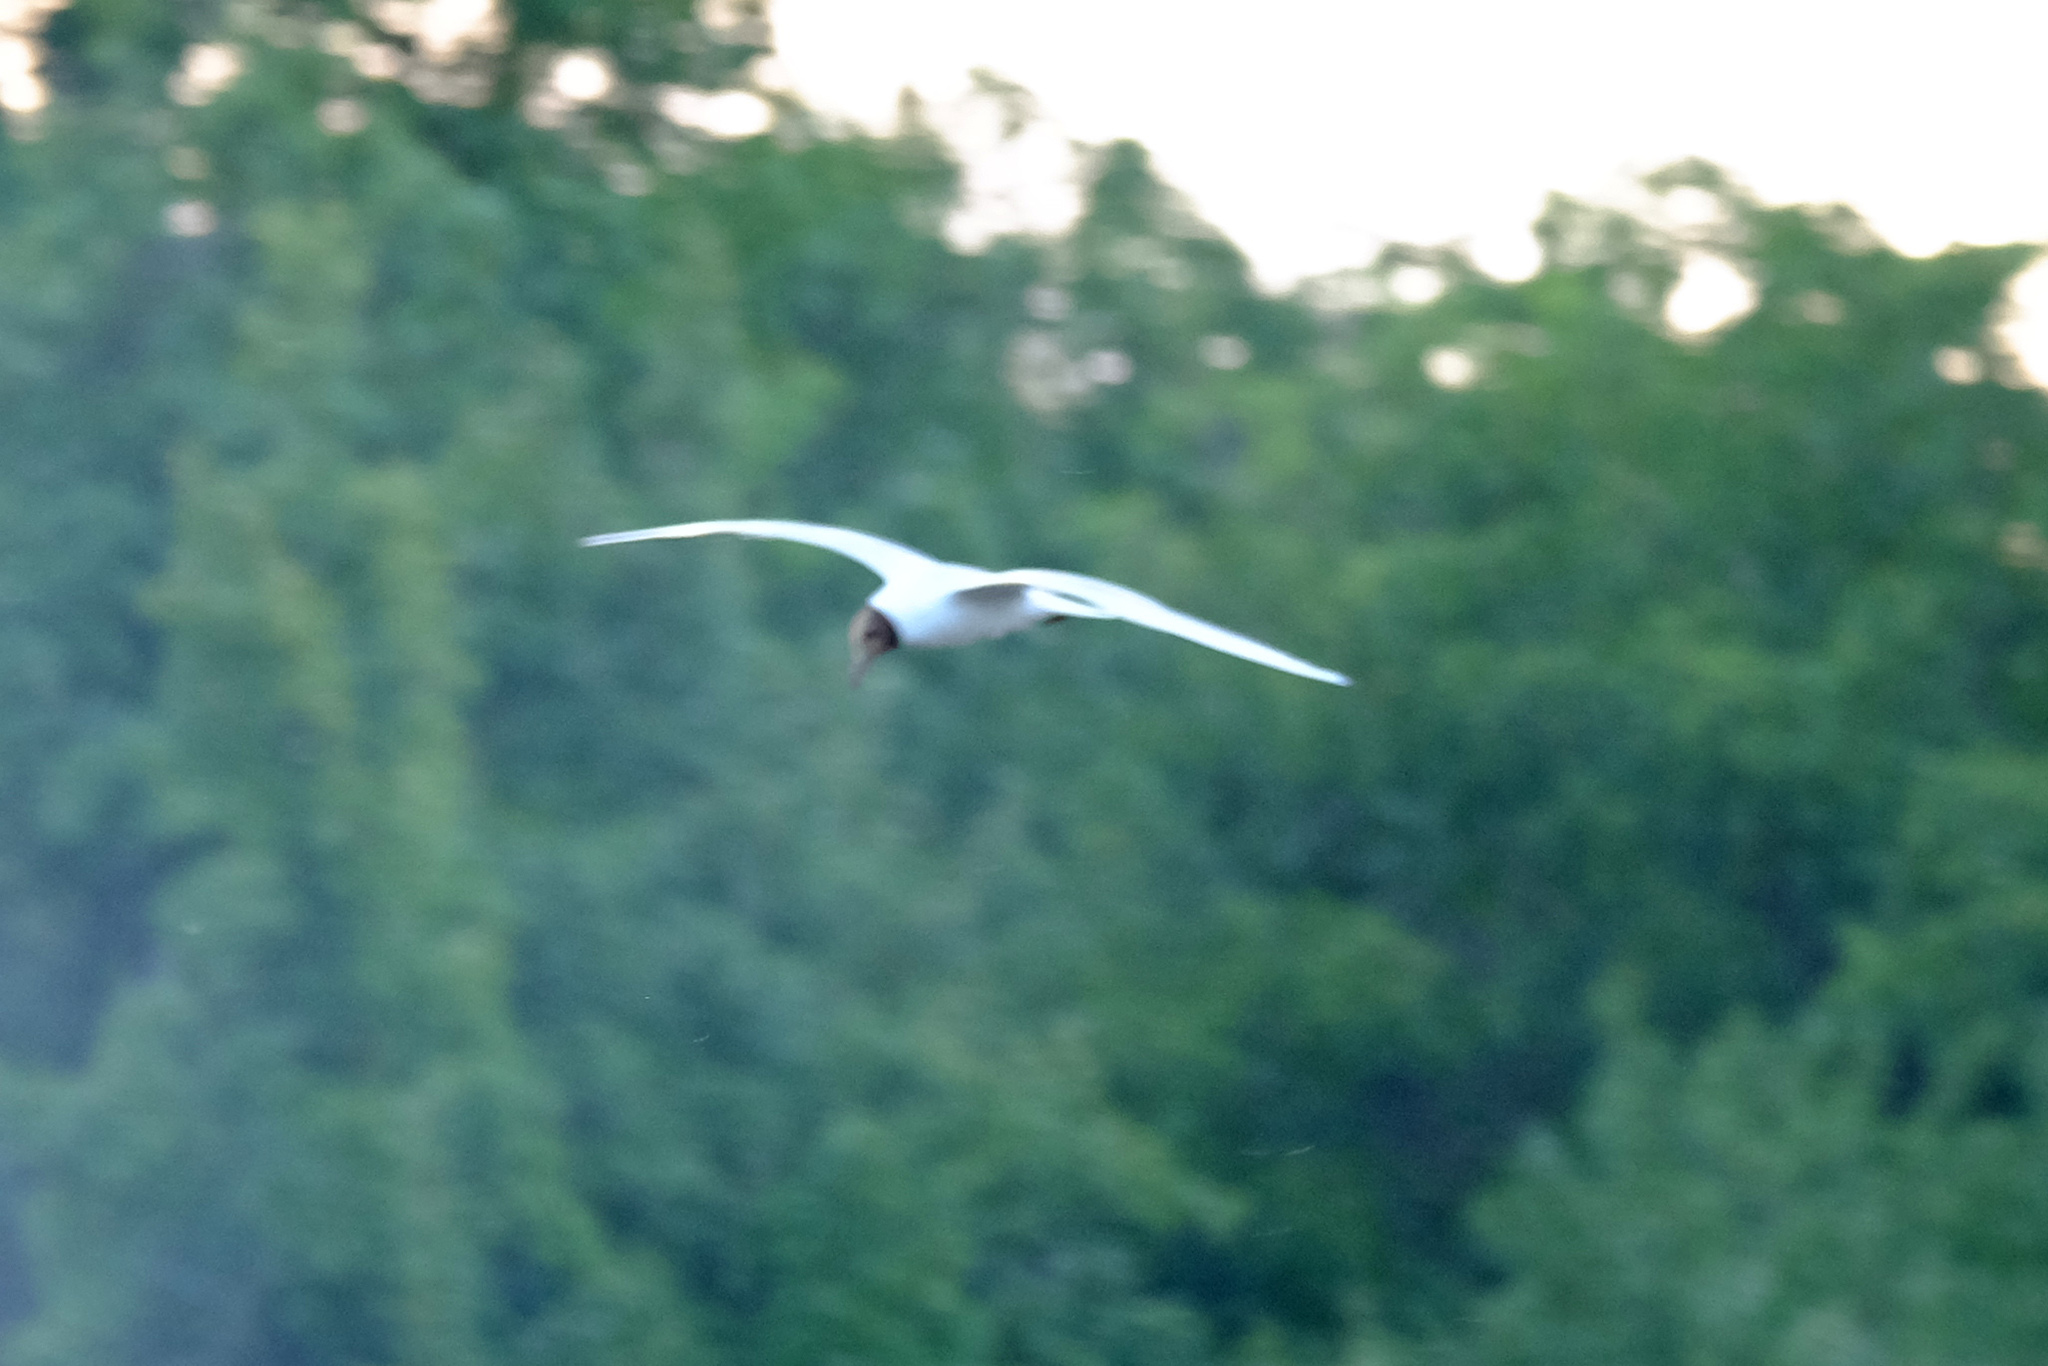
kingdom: Animalia
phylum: Chordata
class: Aves
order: Charadriiformes
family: Laridae
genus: Chroicocephalus
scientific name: Chroicocephalus ridibundus
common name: Black-headed gull
